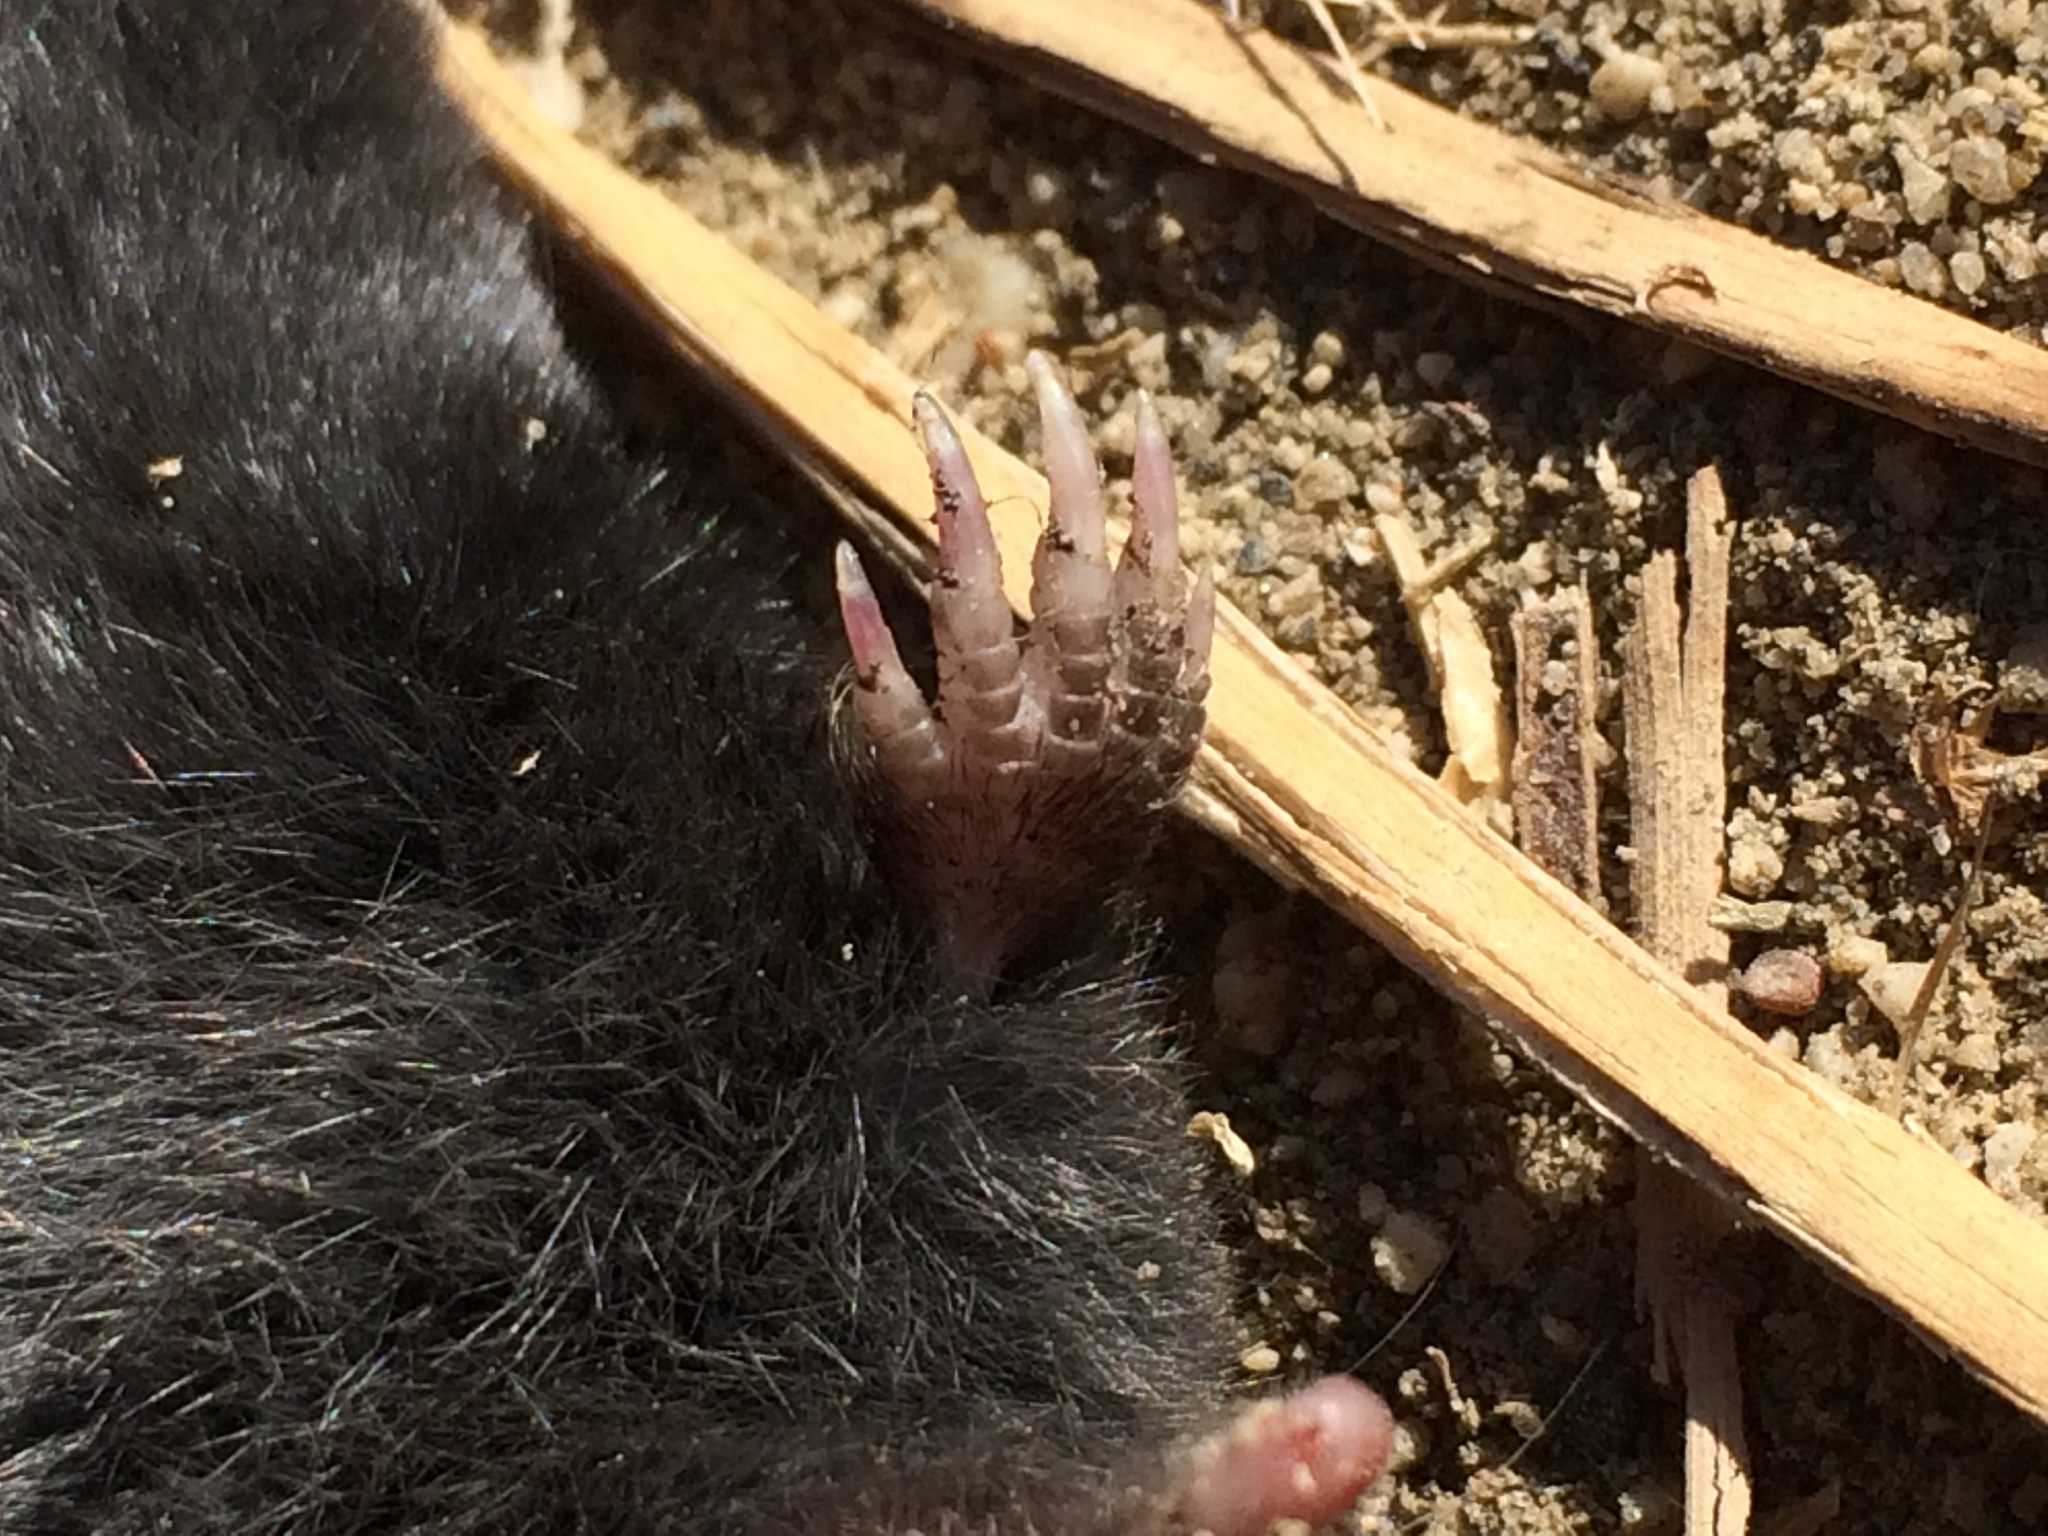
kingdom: Animalia
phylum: Chordata
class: Mammalia
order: Soricomorpha
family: Talpidae
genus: Neurotrichus
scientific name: Neurotrichus gibbsii
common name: American shrew mole
